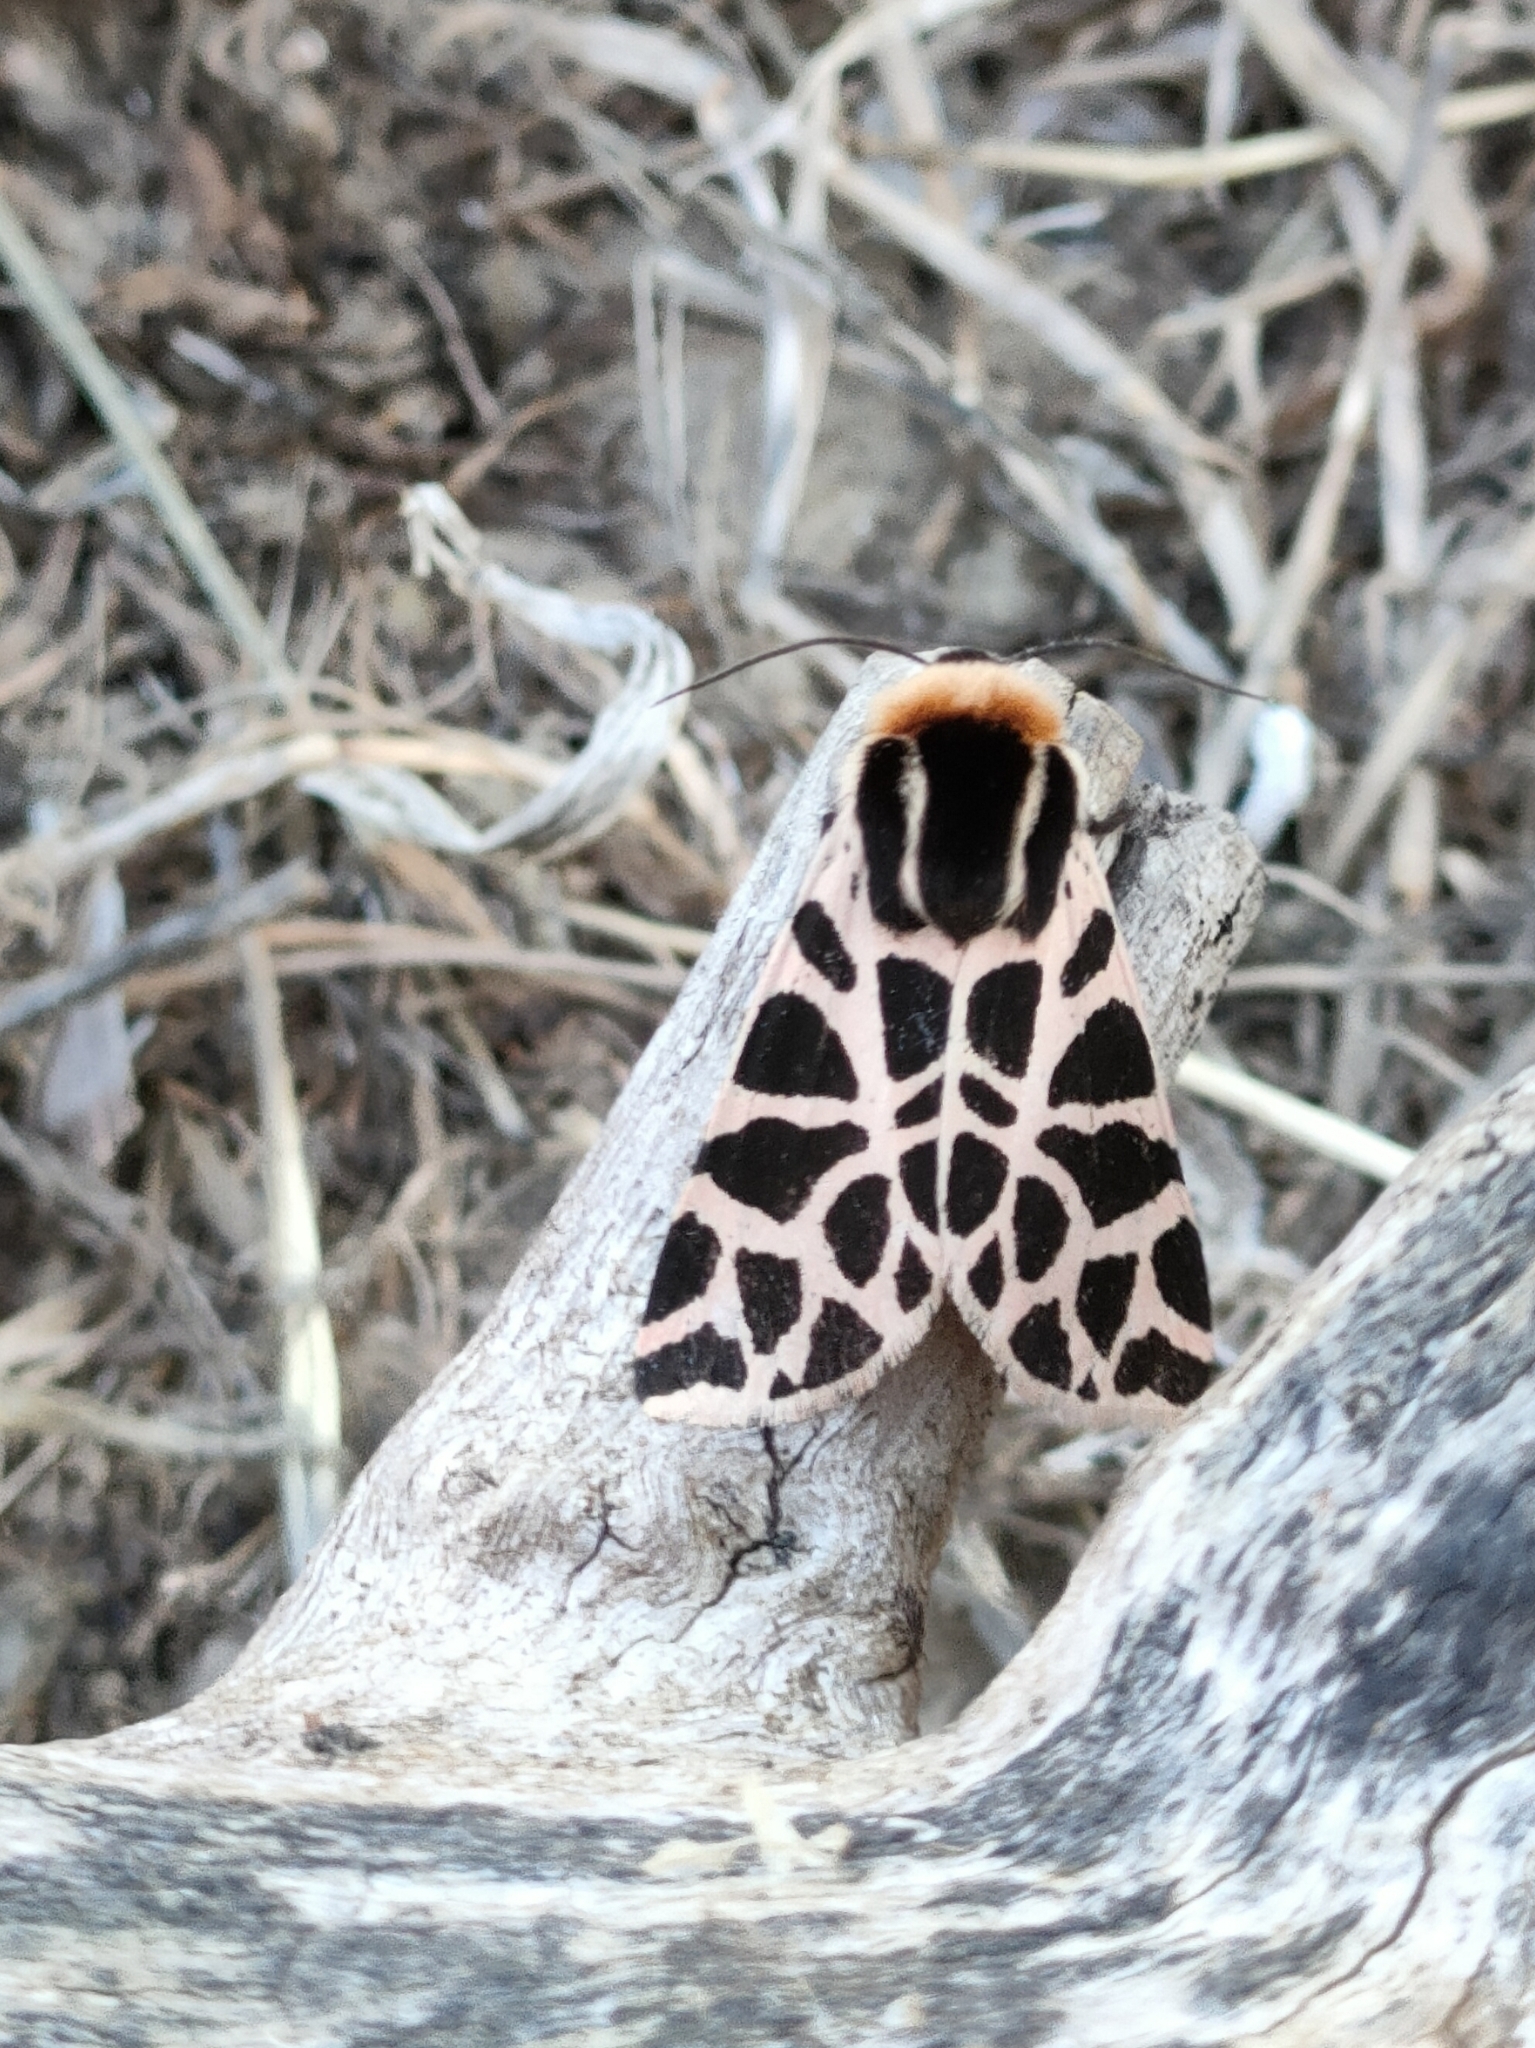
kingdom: Animalia
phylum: Arthropoda
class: Insecta
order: Lepidoptera
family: Erebidae
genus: Cymbalophora
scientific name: Cymbalophora pudica
